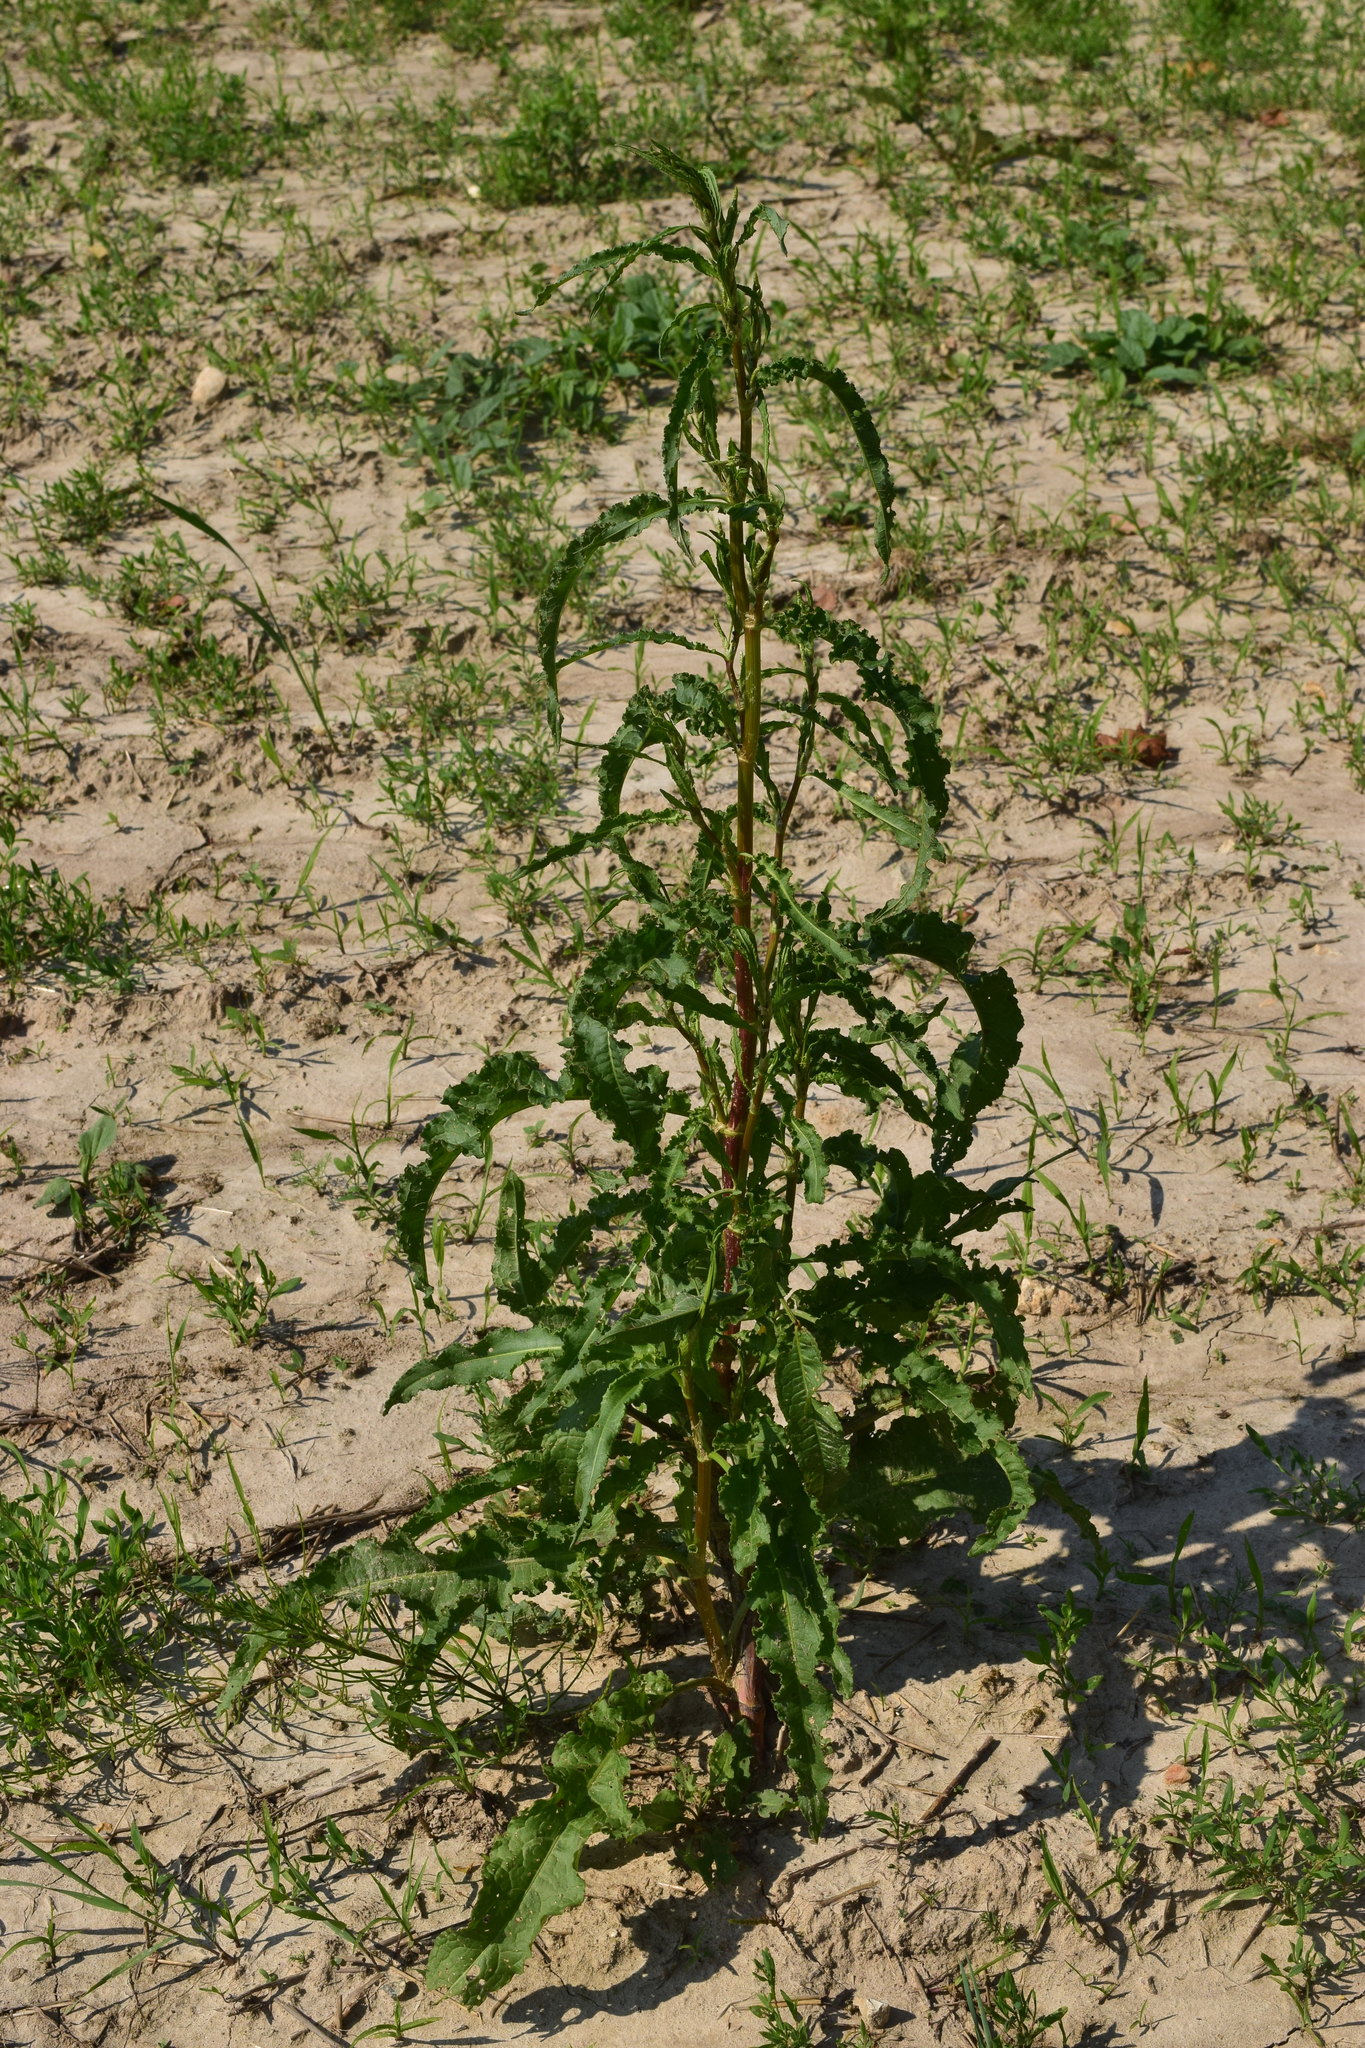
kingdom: Plantae
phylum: Tracheophyta
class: Magnoliopsida
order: Caryophyllales
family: Polygonaceae
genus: Rumex
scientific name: Rumex crispus
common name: Curled dock
